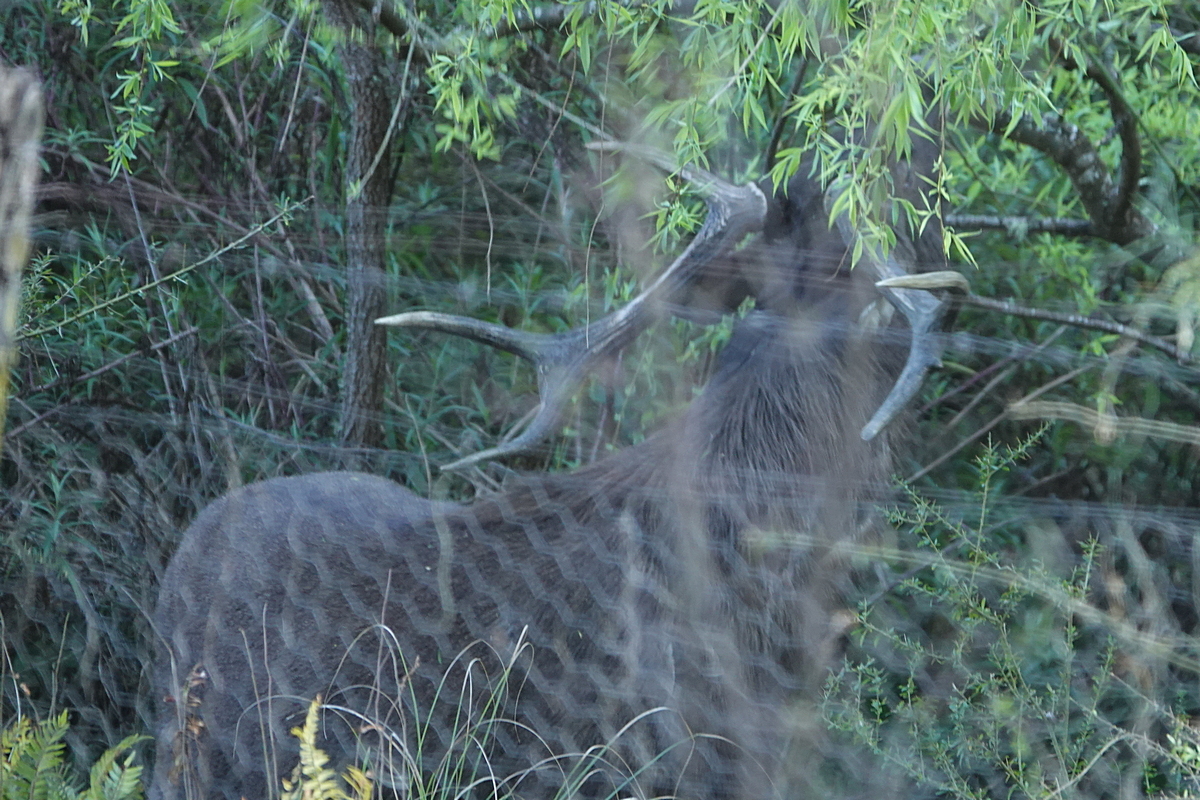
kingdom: Animalia
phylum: Chordata
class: Mammalia
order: Artiodactyla
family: Cervidae
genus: Rusa
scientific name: Rusa unicolor
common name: Sambar
